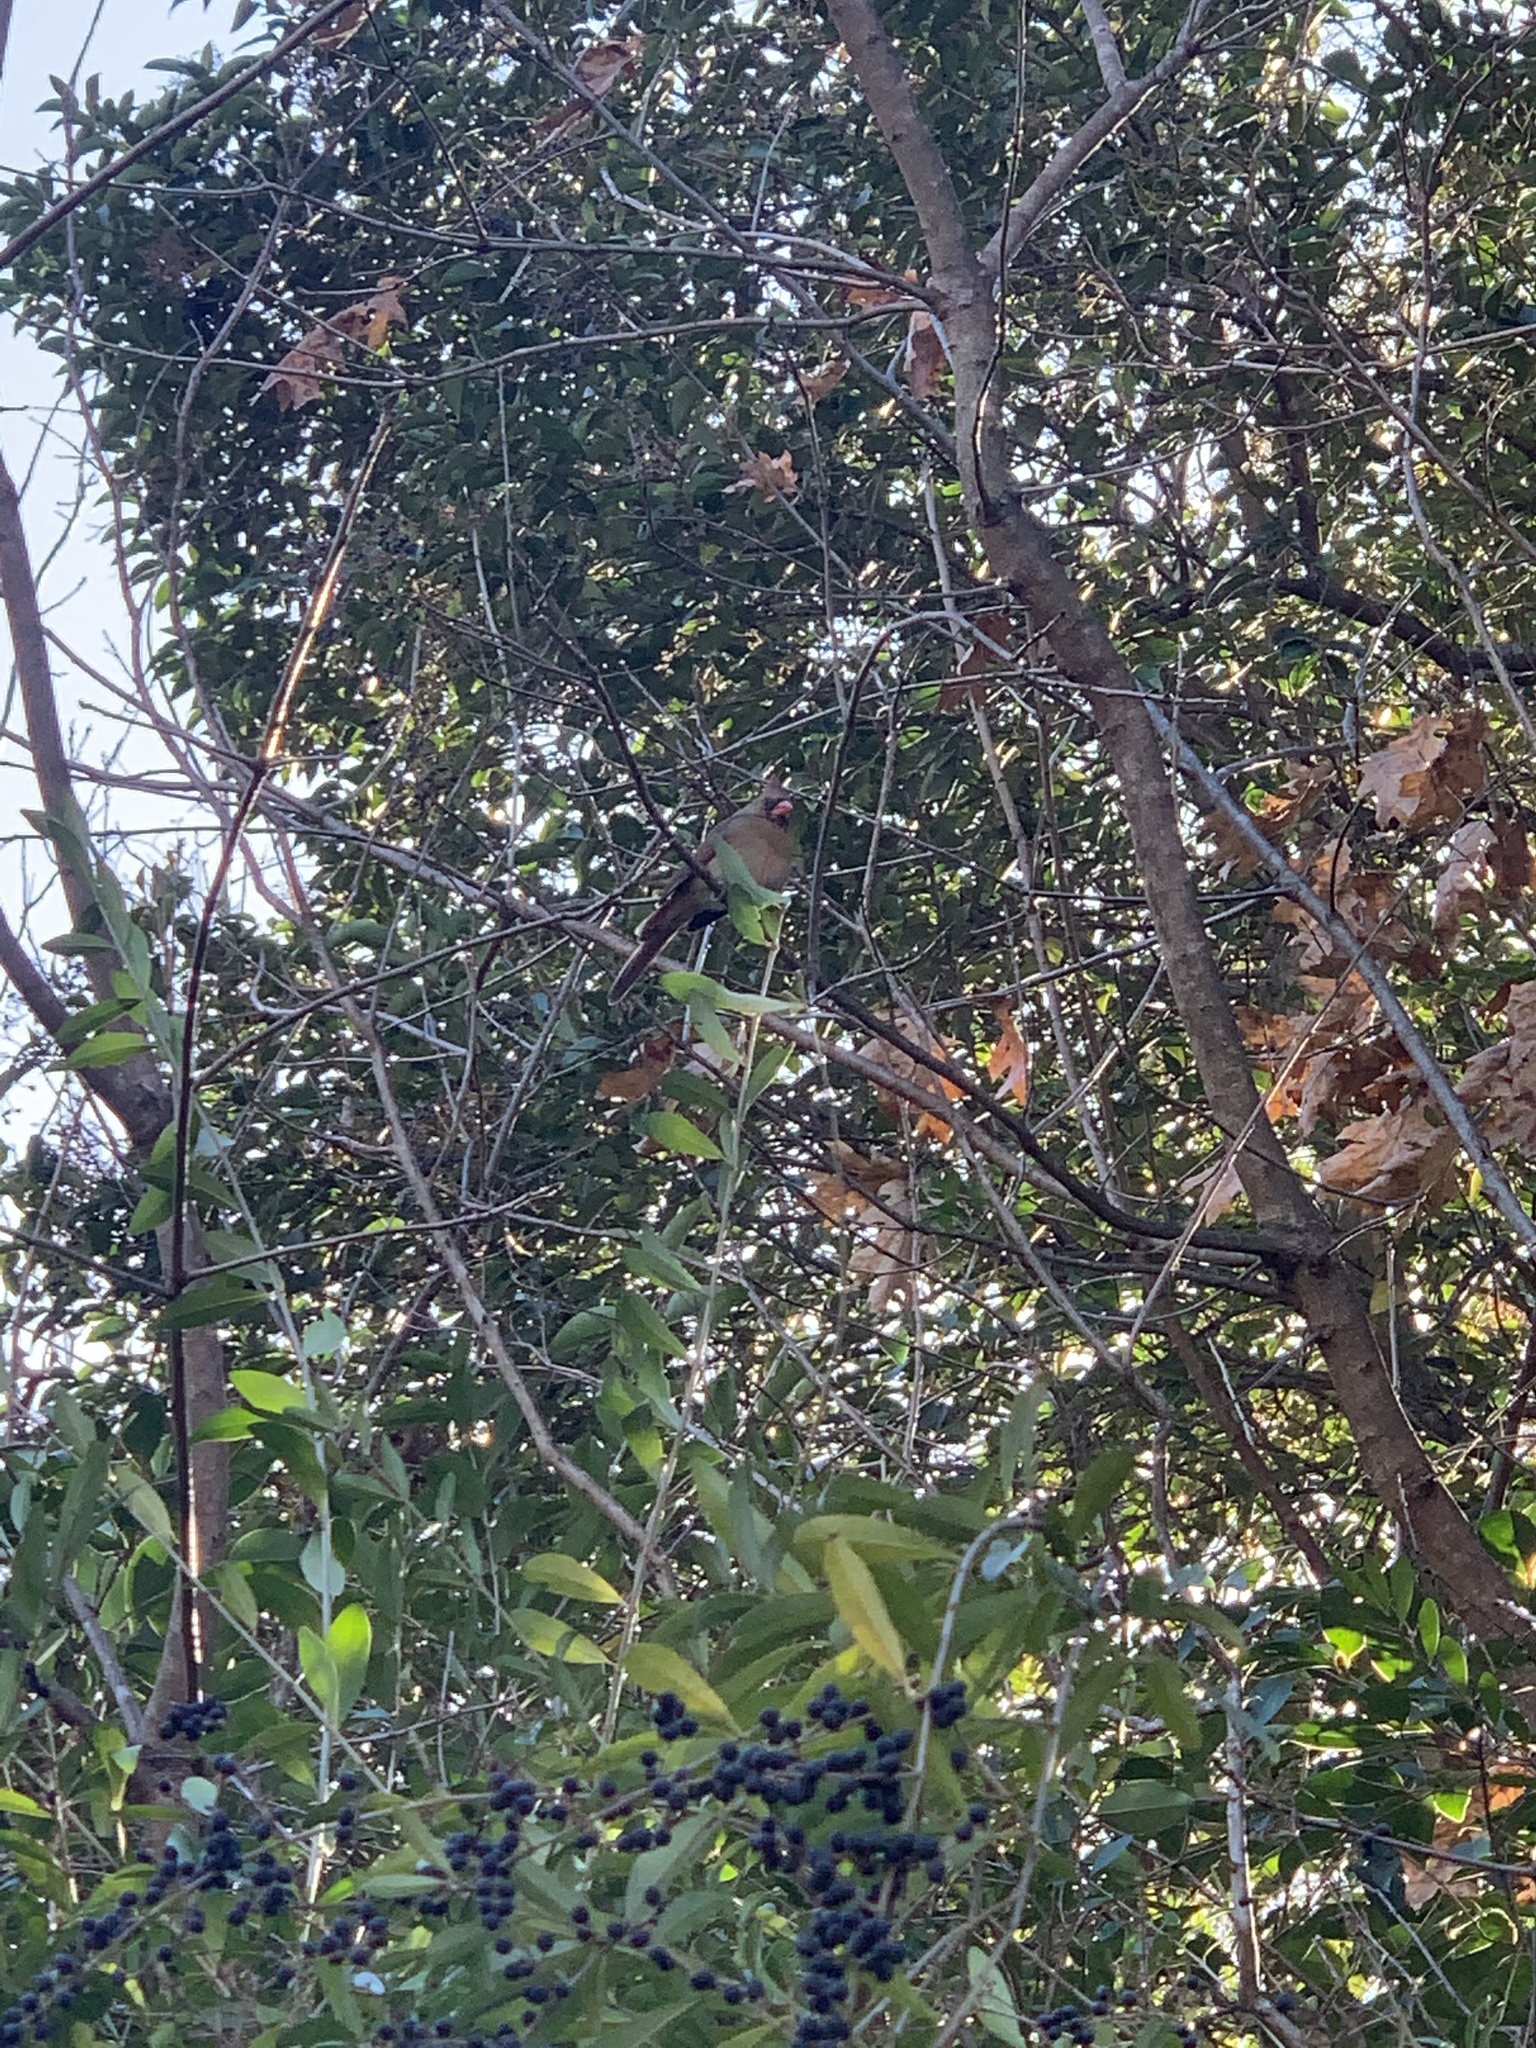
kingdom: Animalia
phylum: Chordata
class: Aves
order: Passeriformes
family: Cardinalidae
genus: Cardinalis
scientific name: Cardinalis cardinalis
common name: Northern cardinal
